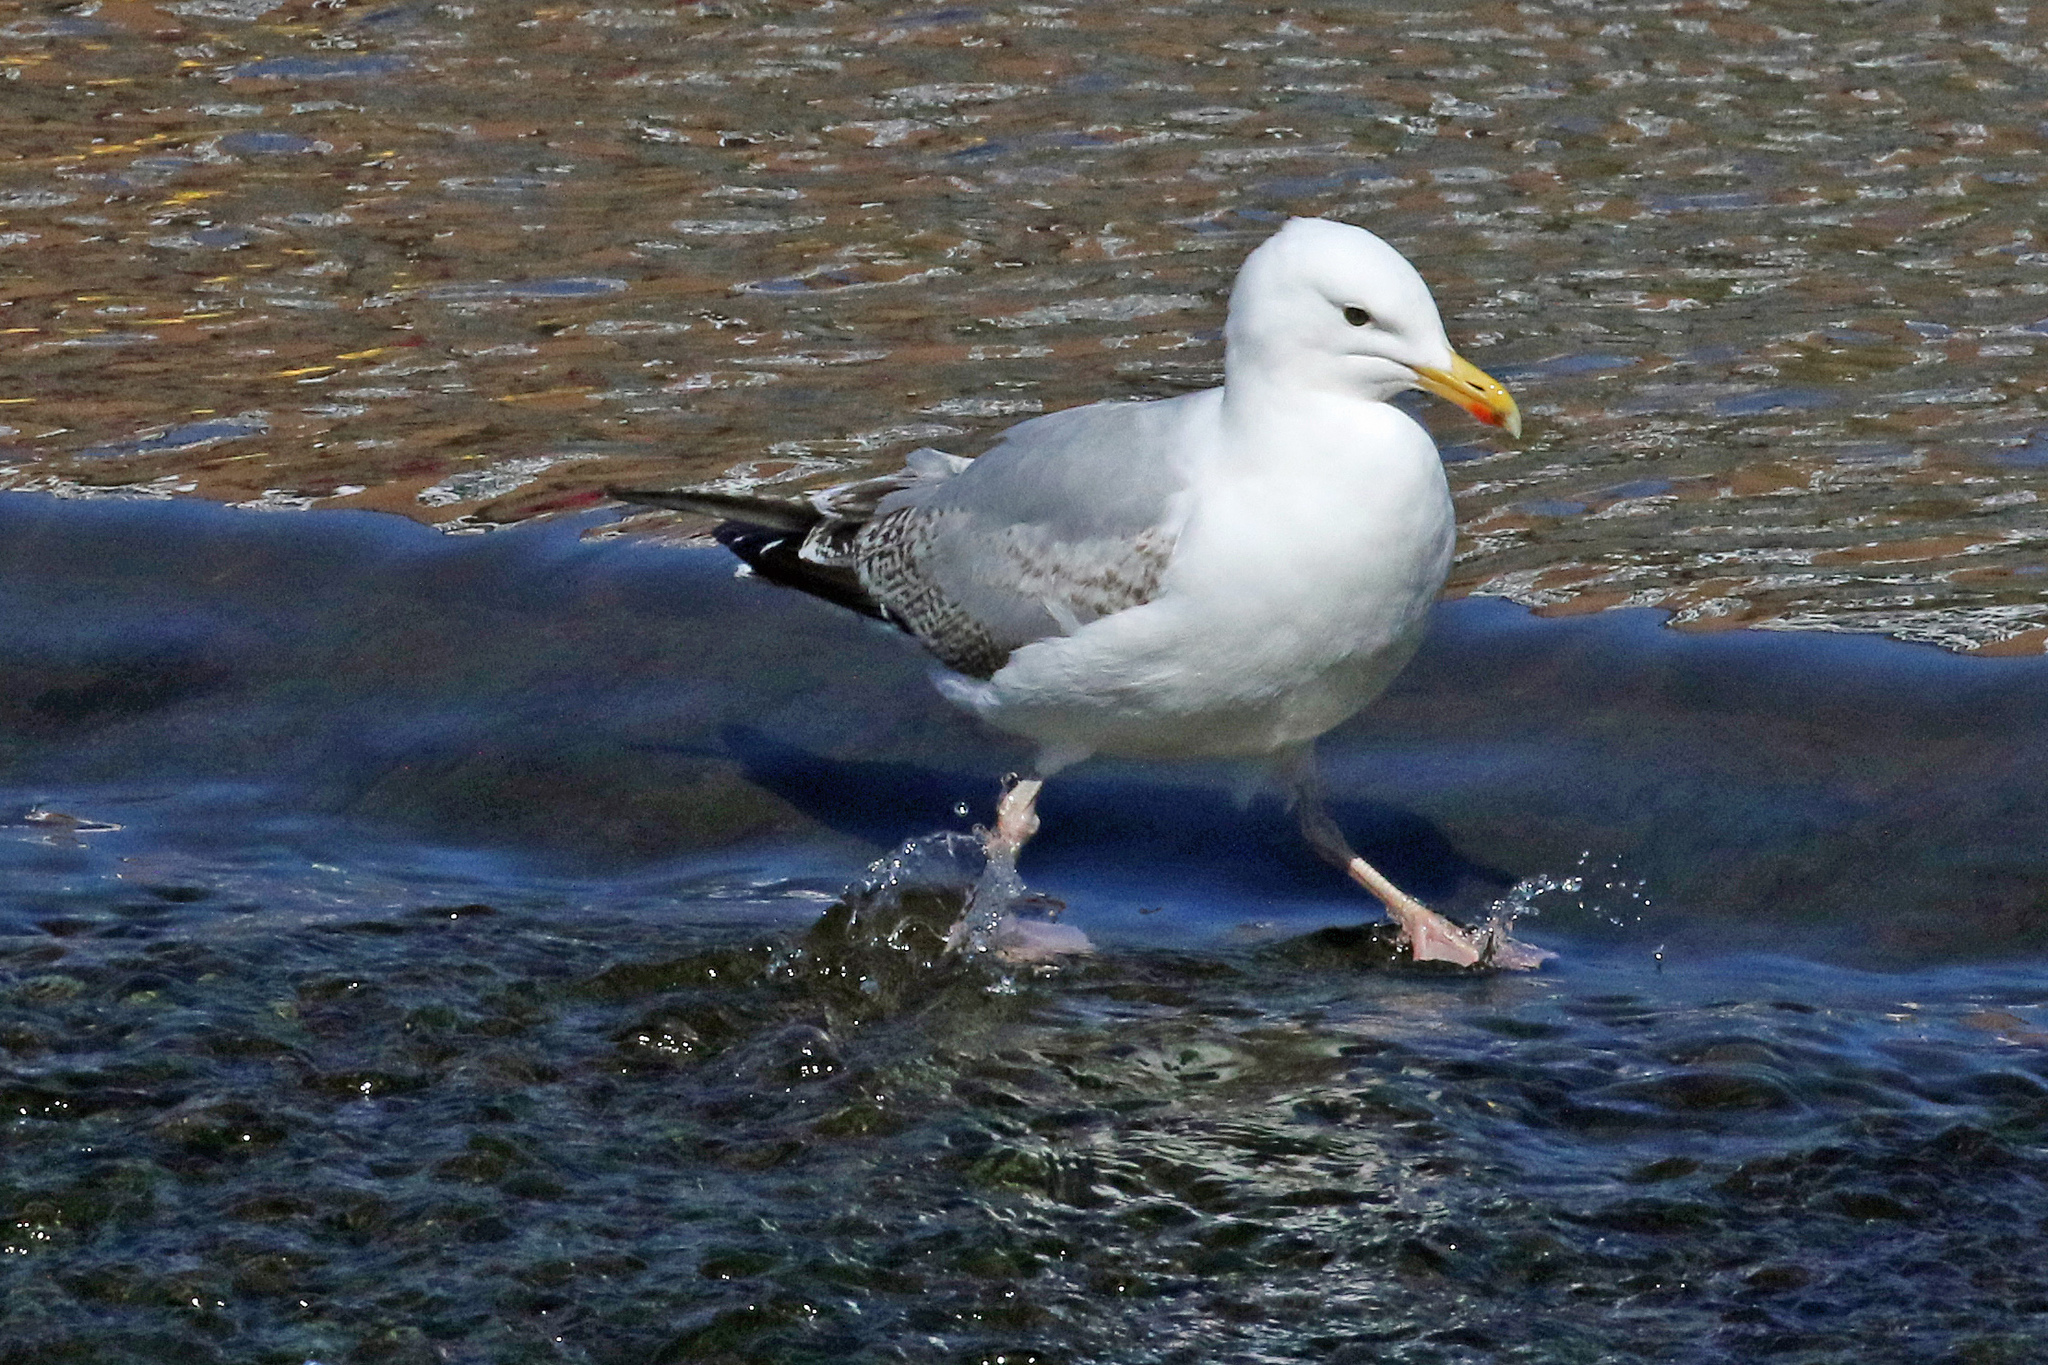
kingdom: Animalia
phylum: Chordata
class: Aves
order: Charadriiformes
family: Laridae
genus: Larus
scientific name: Larus argentatus
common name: Herring gull
